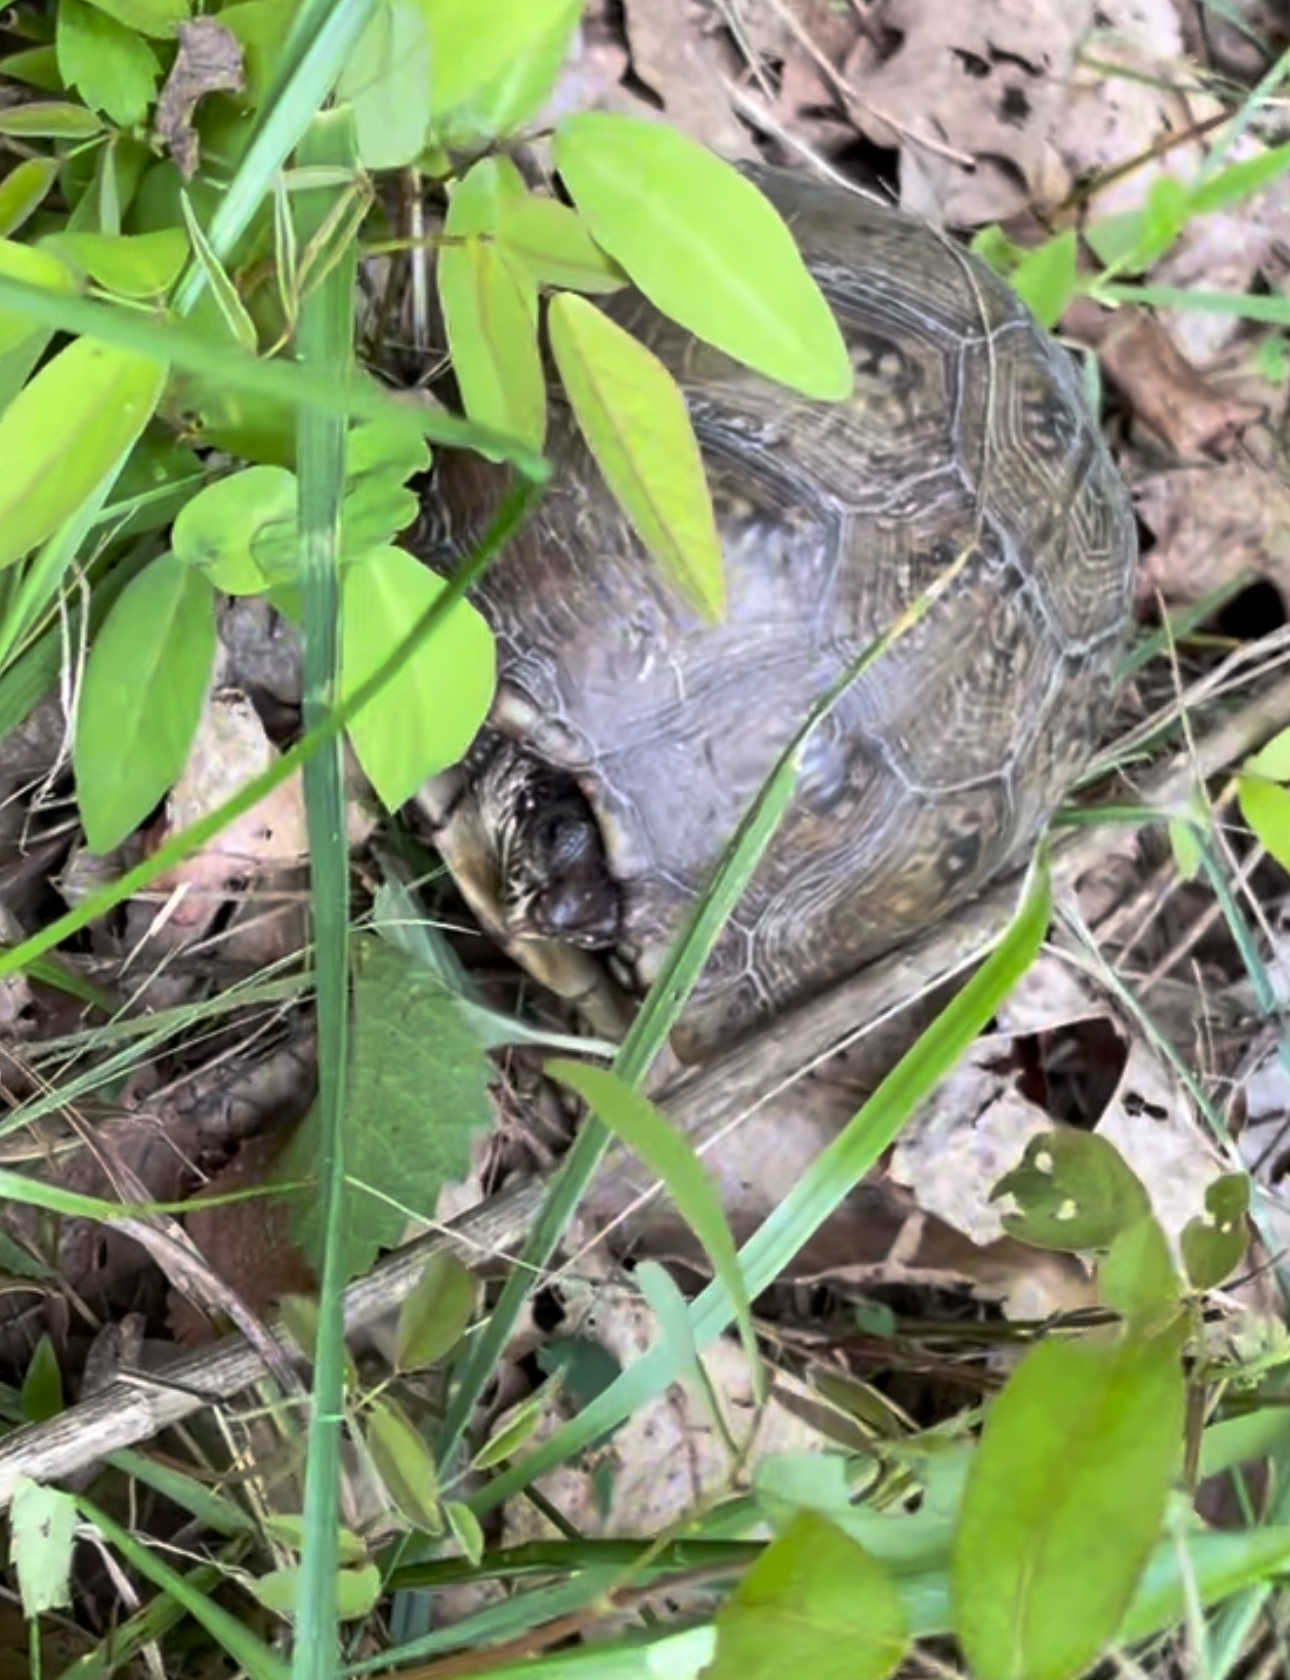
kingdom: Animalia
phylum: Chordata
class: Testudines
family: Emydidae
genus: Terrapene
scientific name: Terrapene carolina
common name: Common box turtle
